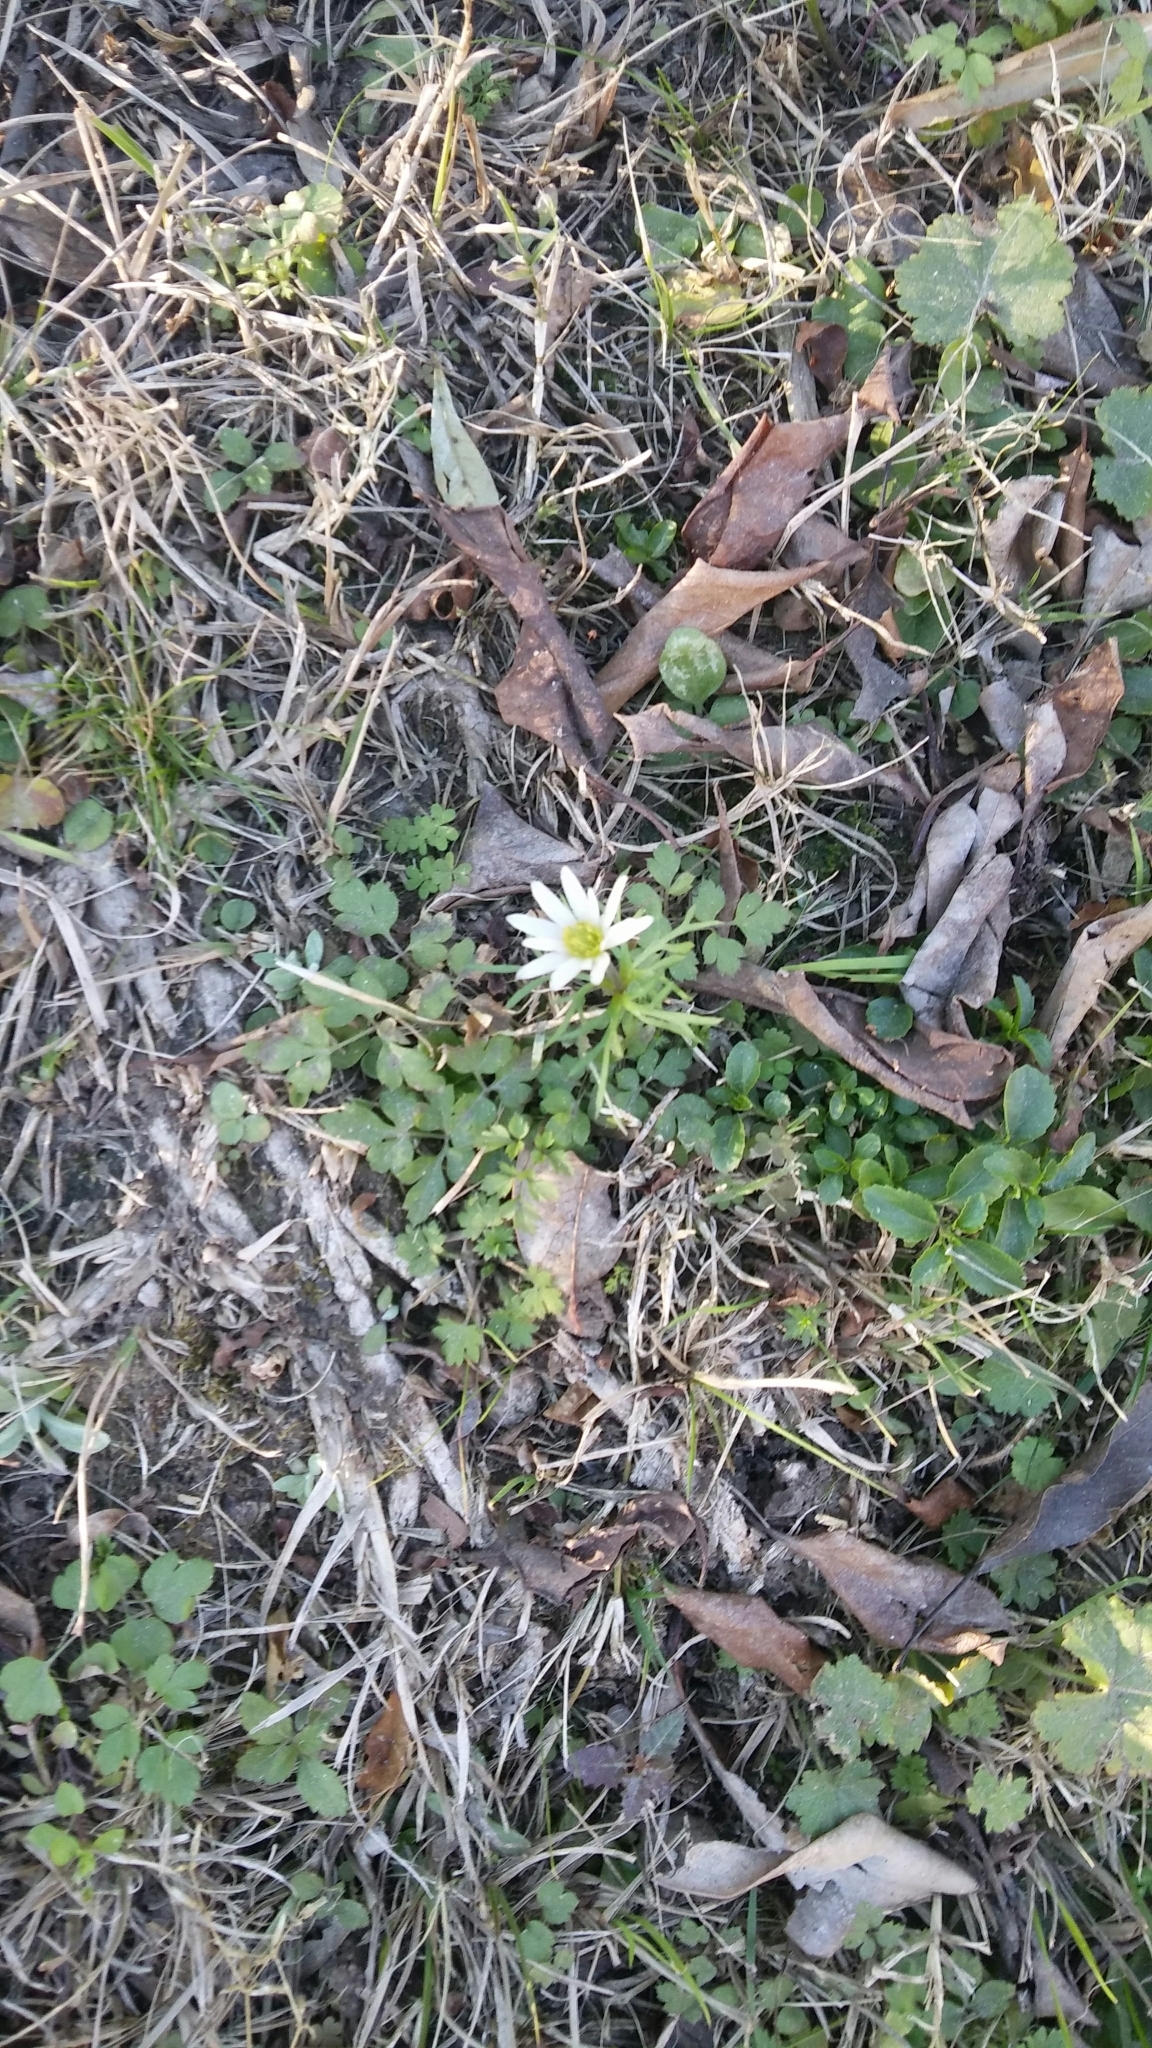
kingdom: Plantae
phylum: Tracheophyta
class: Magnoliopsida
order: Ranunculales
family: Ranunculaceae
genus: Anemone
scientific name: Anemone decapetala
